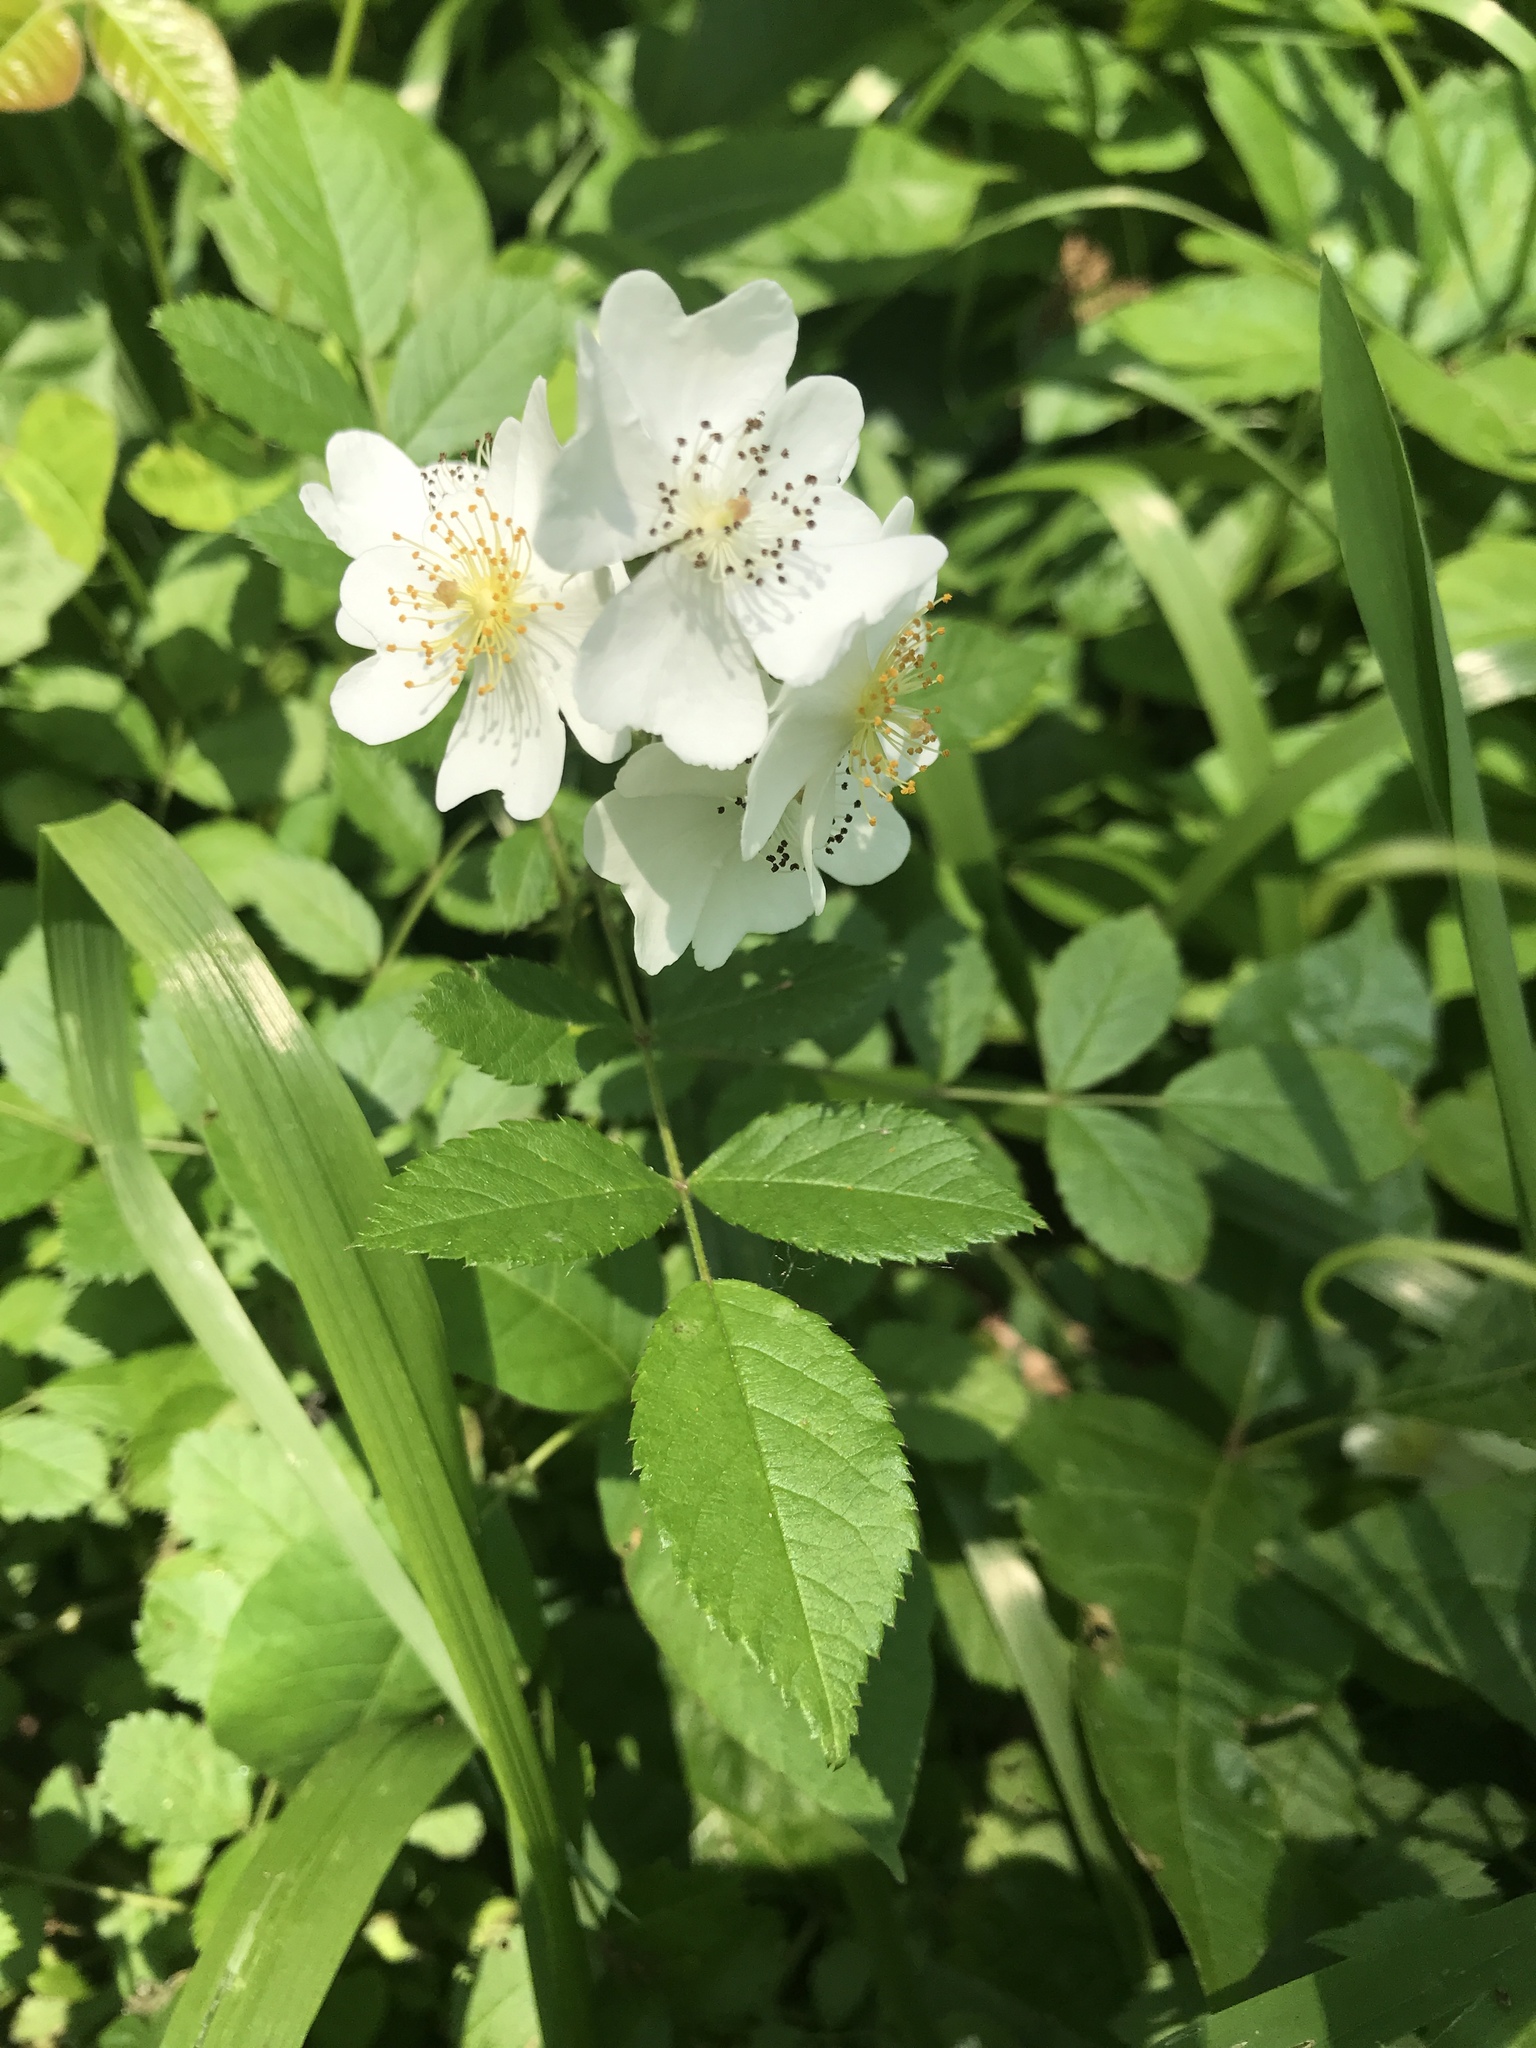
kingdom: Plantae
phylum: Tracheophyta
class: Magnoliopsida
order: Rosales
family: Rosaceae
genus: Rosa
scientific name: Rosa multiflora
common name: Multiflora rose
